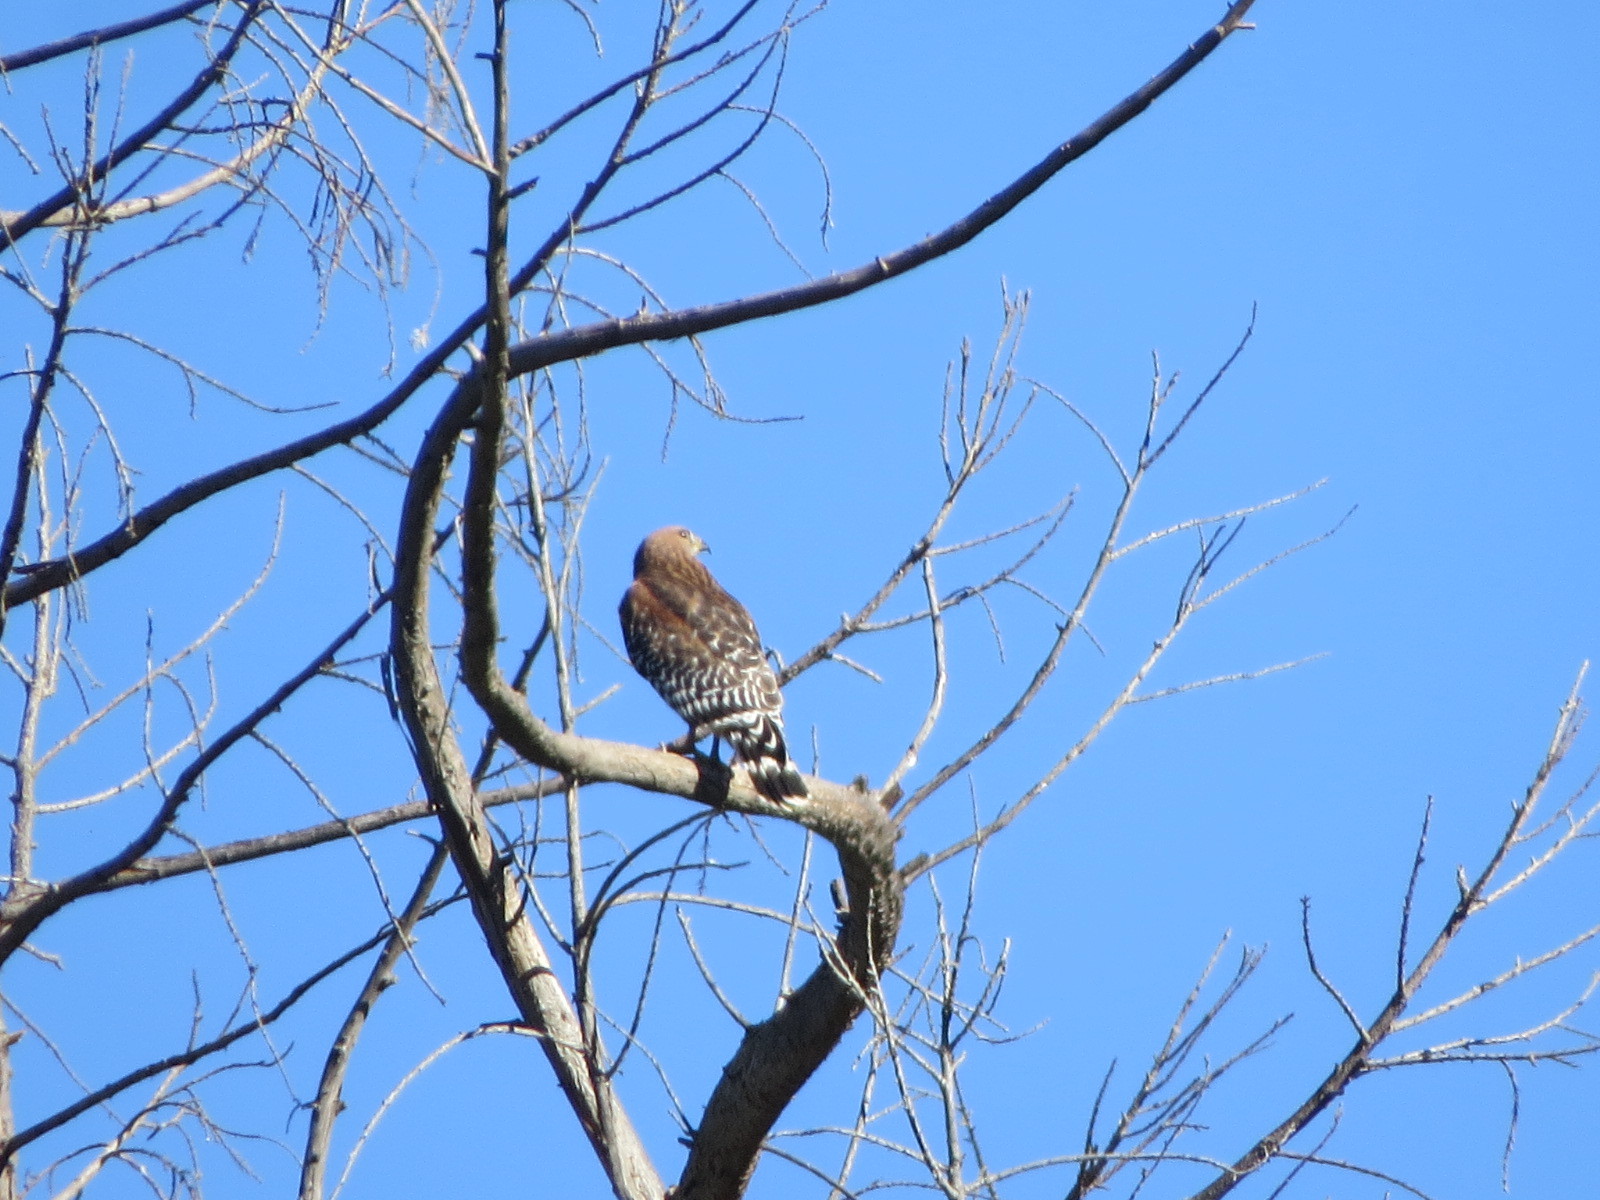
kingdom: Animalia
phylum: Chordata
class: Aves
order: Accipitriformes
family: Accipitridae
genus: Buteo
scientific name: Buteo lineatus
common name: Red-shouldered hawk
